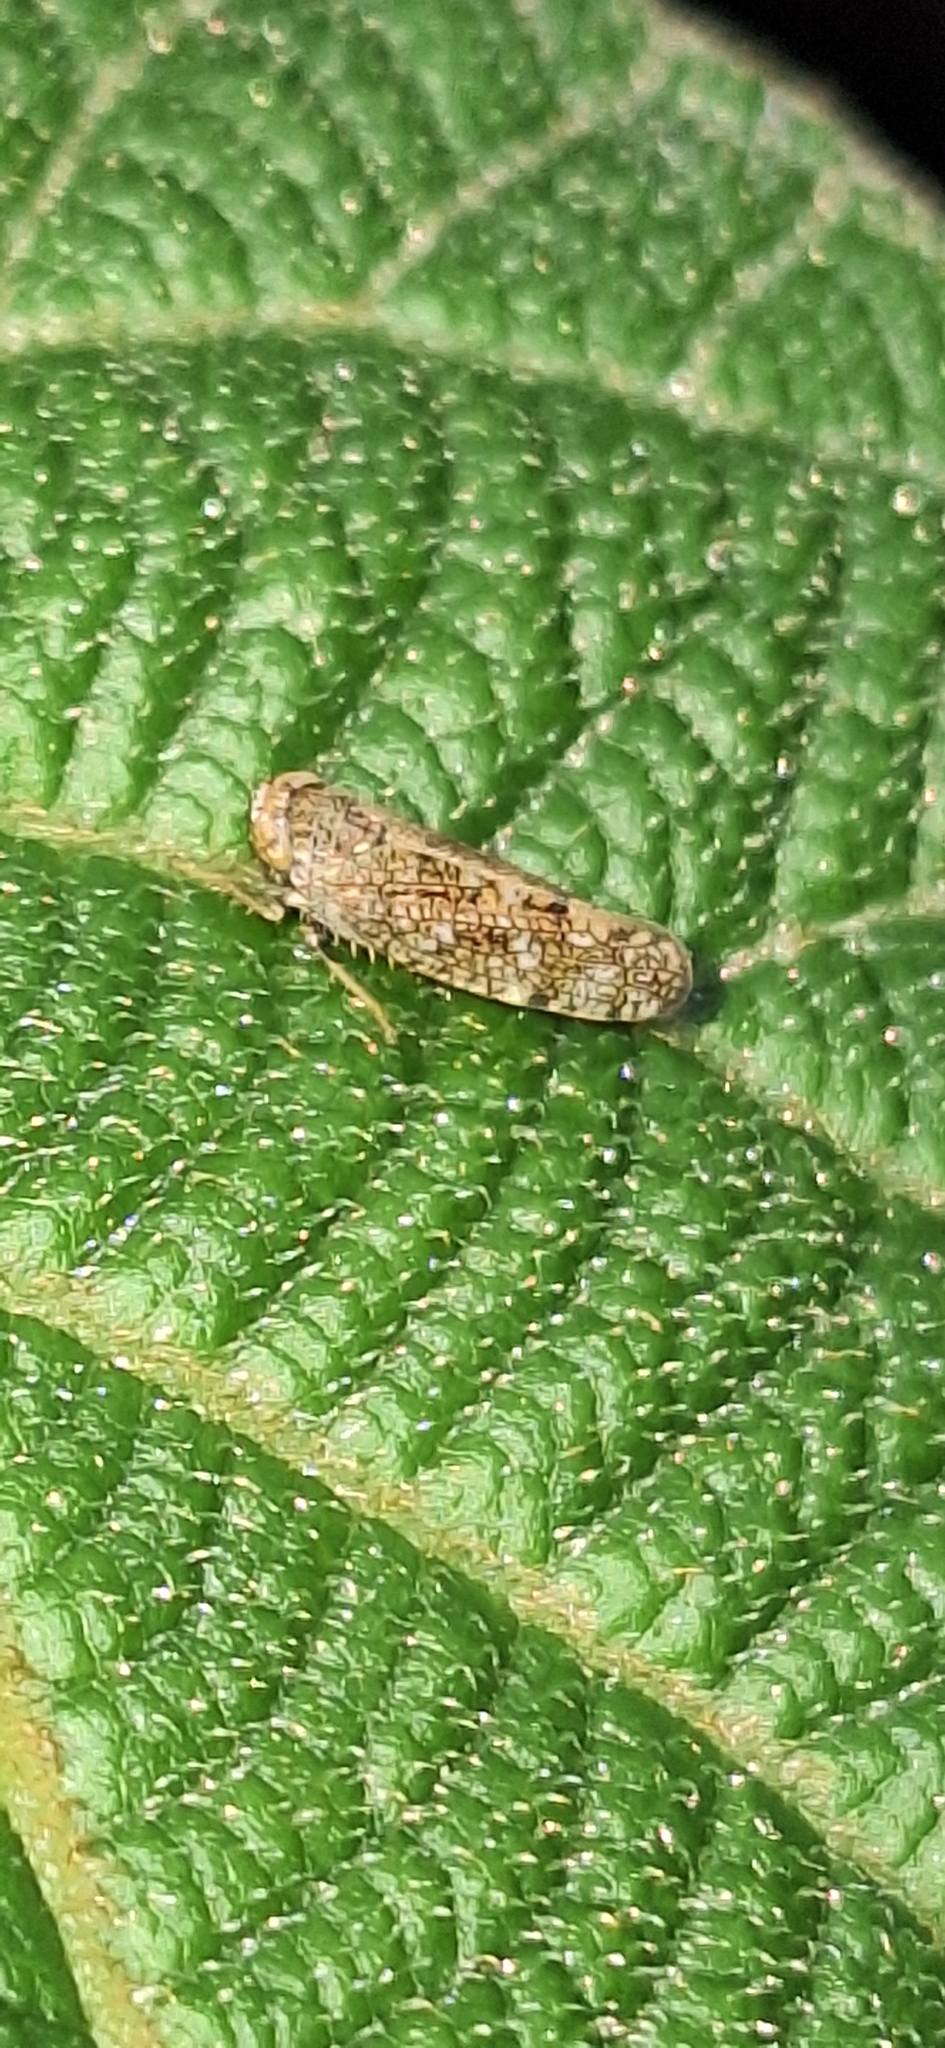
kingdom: Animalia
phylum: Arthropoda
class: Insecta
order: Hemiptera
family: Cicadellidae
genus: Orientus
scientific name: Orientus ishidae
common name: Japanese leafhopper
